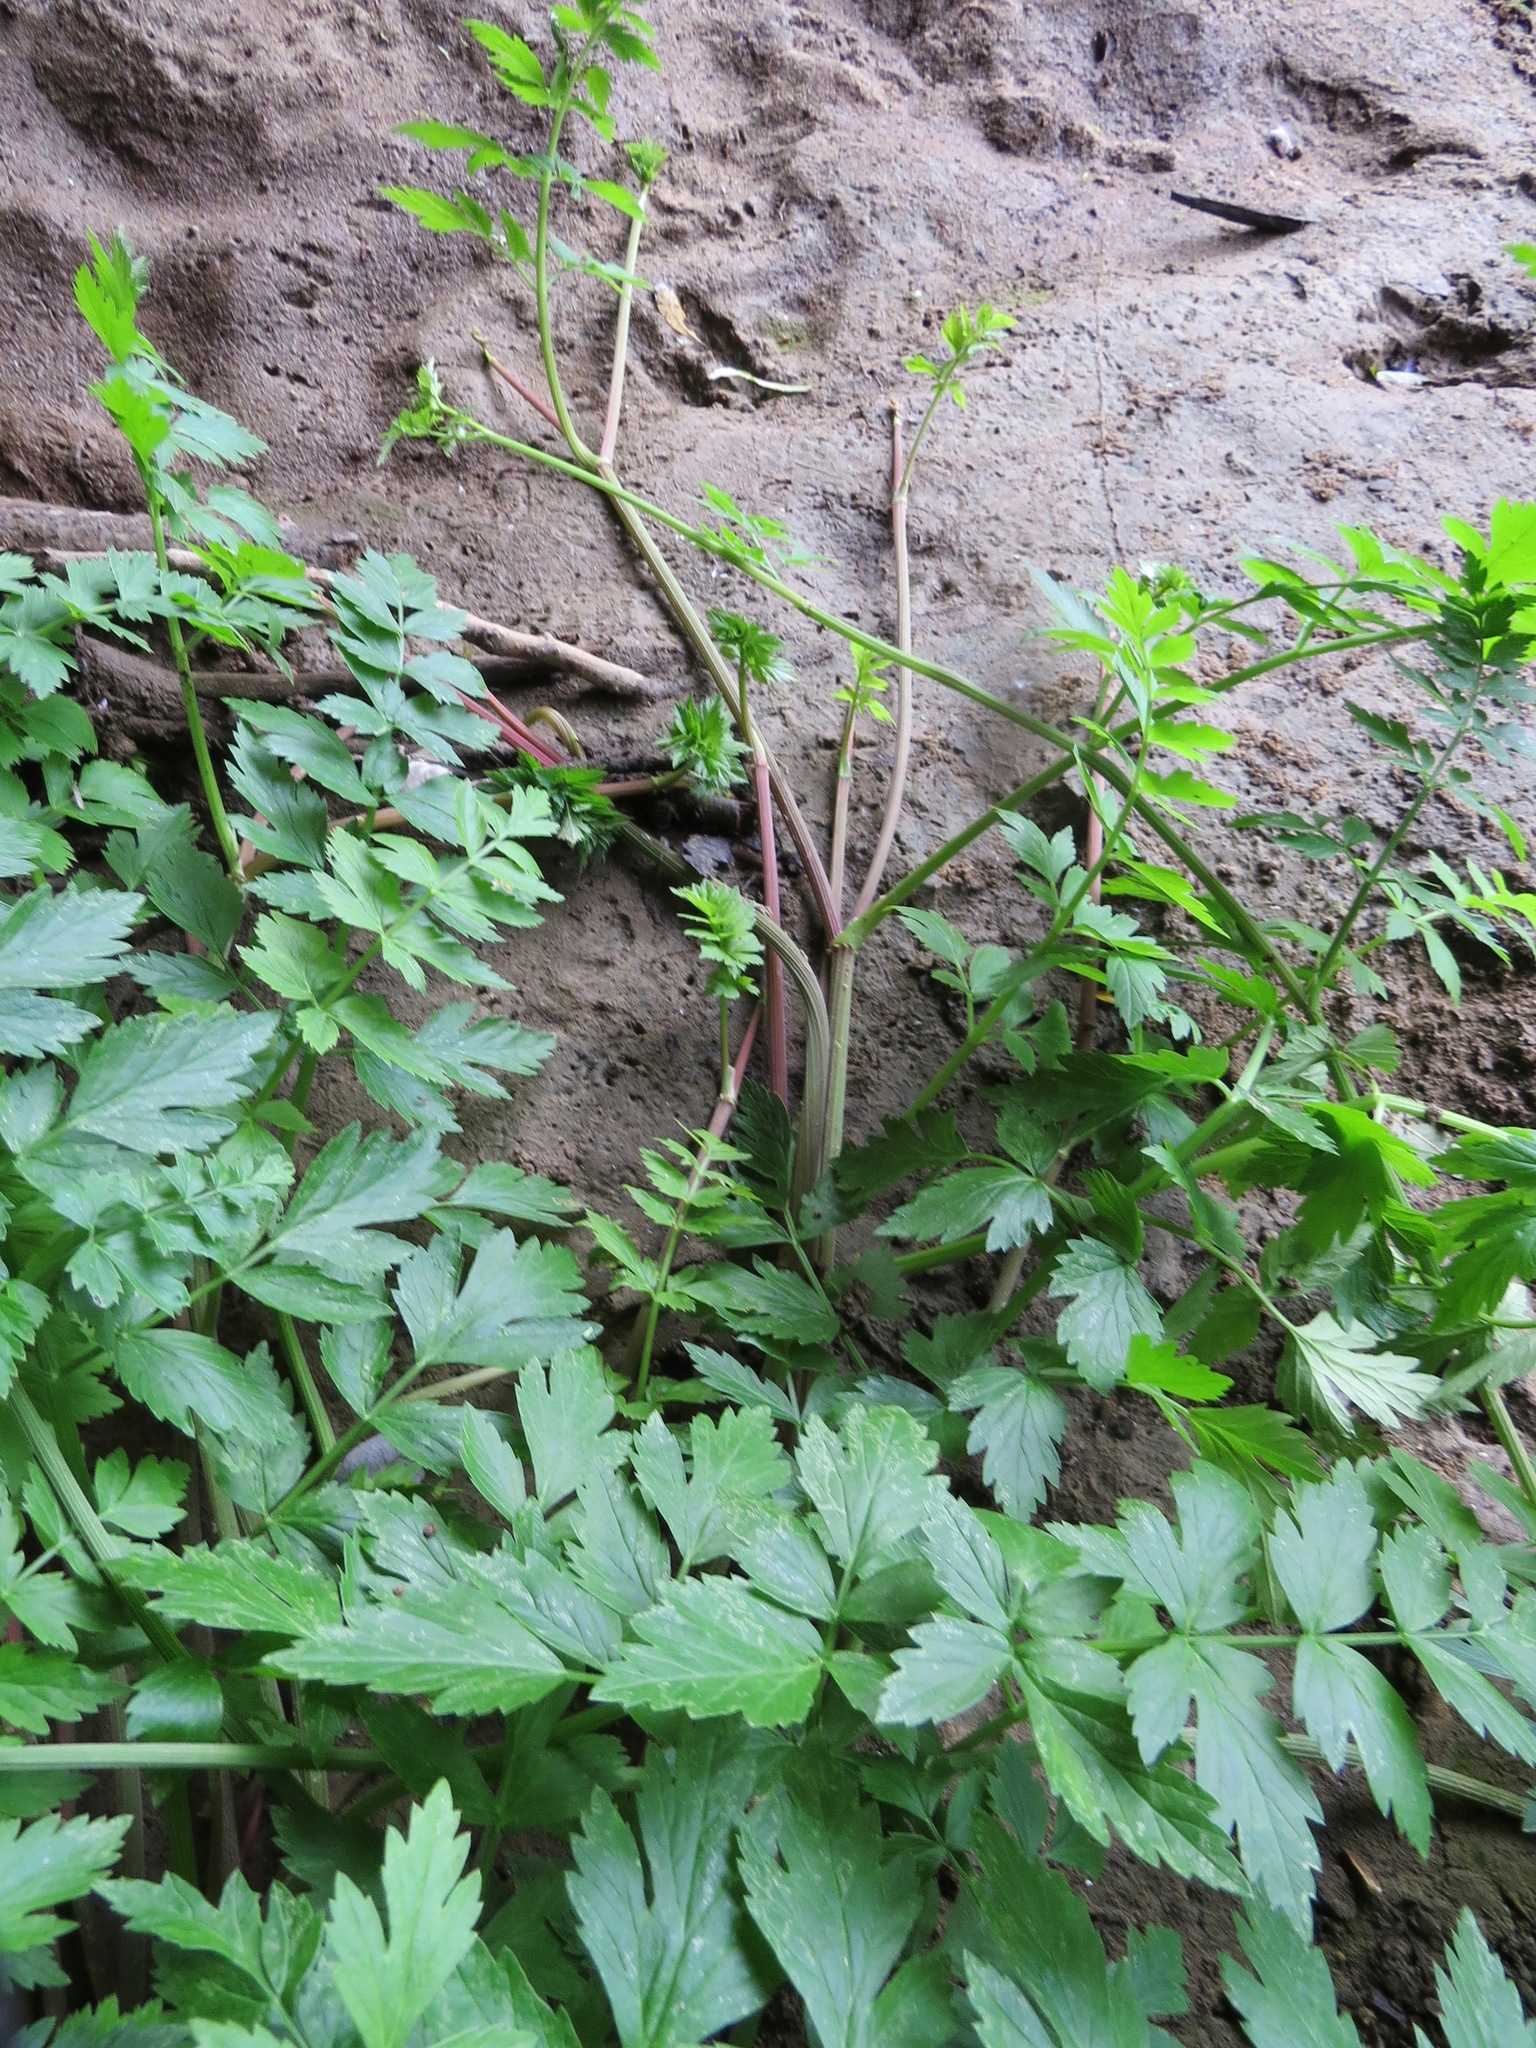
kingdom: Plantae
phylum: Tracheophyta
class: Magnoliopsida
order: Apiales
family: Apiaceae
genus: Oenanthe
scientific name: Oenanthe sarmentosa
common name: American water-parsley
